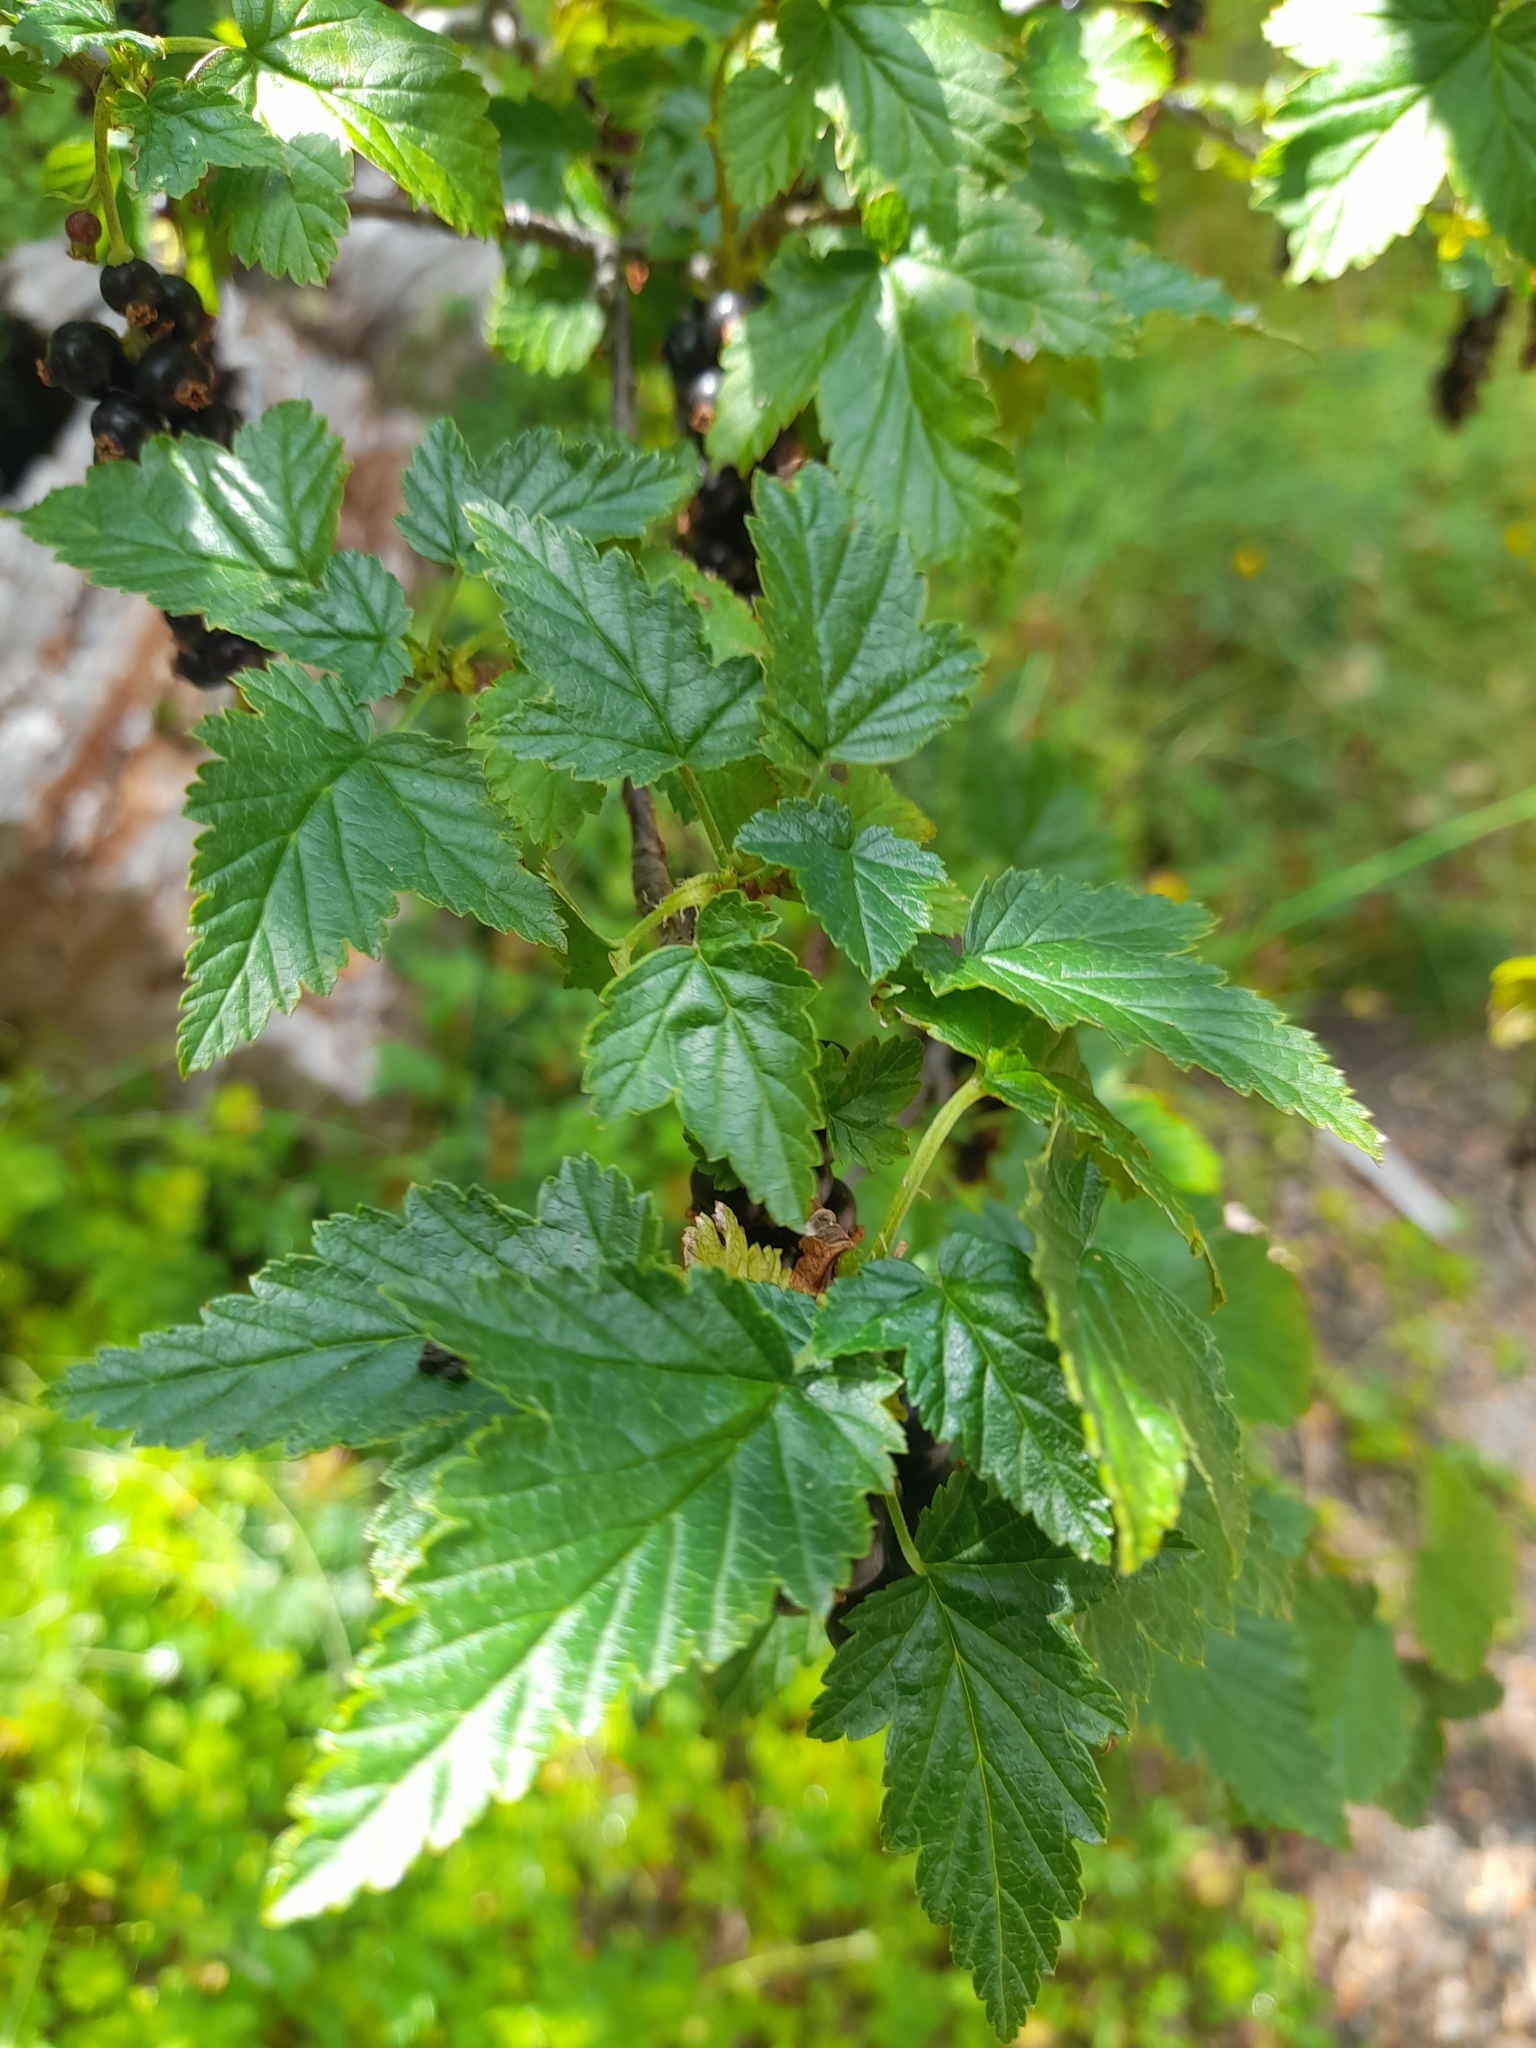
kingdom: Plantae
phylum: Tracheophyta
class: Magnoliopsida
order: Saxifragales
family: Grossulariaceae
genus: Ribes
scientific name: Ribes magellanicum
